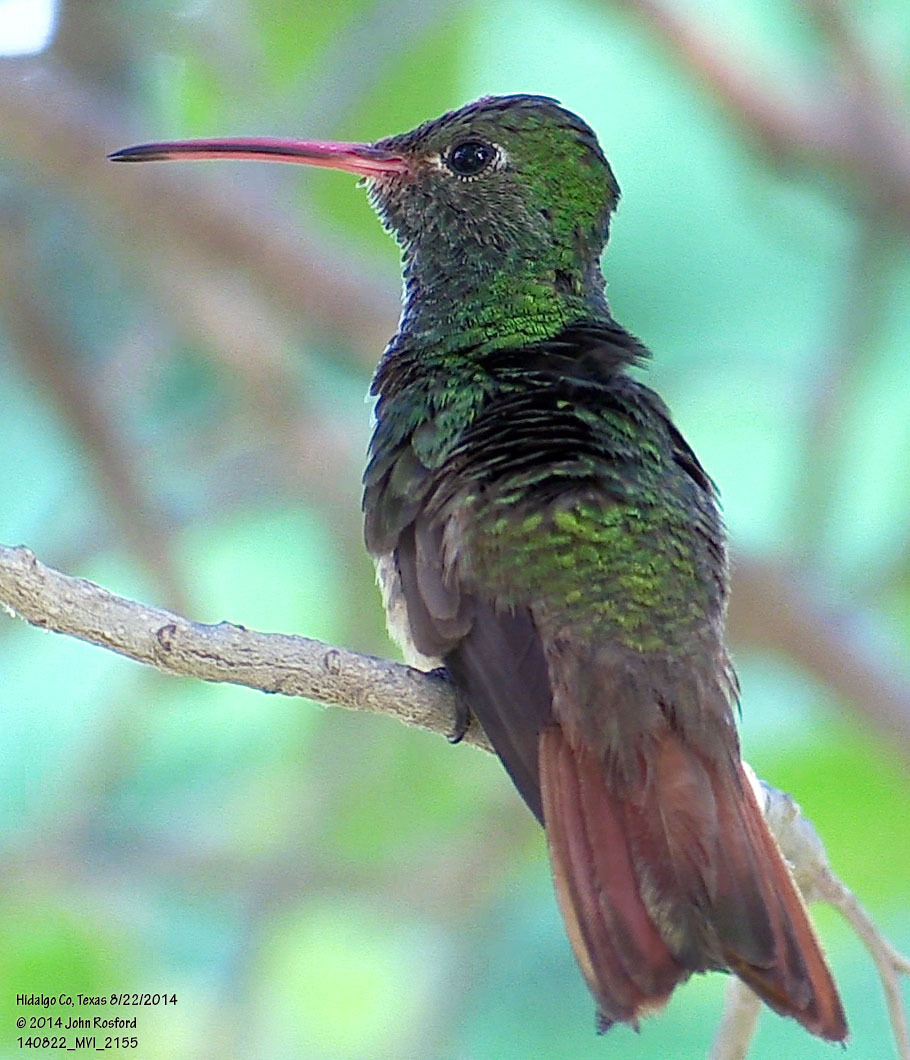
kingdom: Animalia
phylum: Chordata
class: Aves
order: Apodiformes
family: Trochilidae
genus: Amazilia
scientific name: Amazilia yucatanensis
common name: Buff-bellied hummingbird
